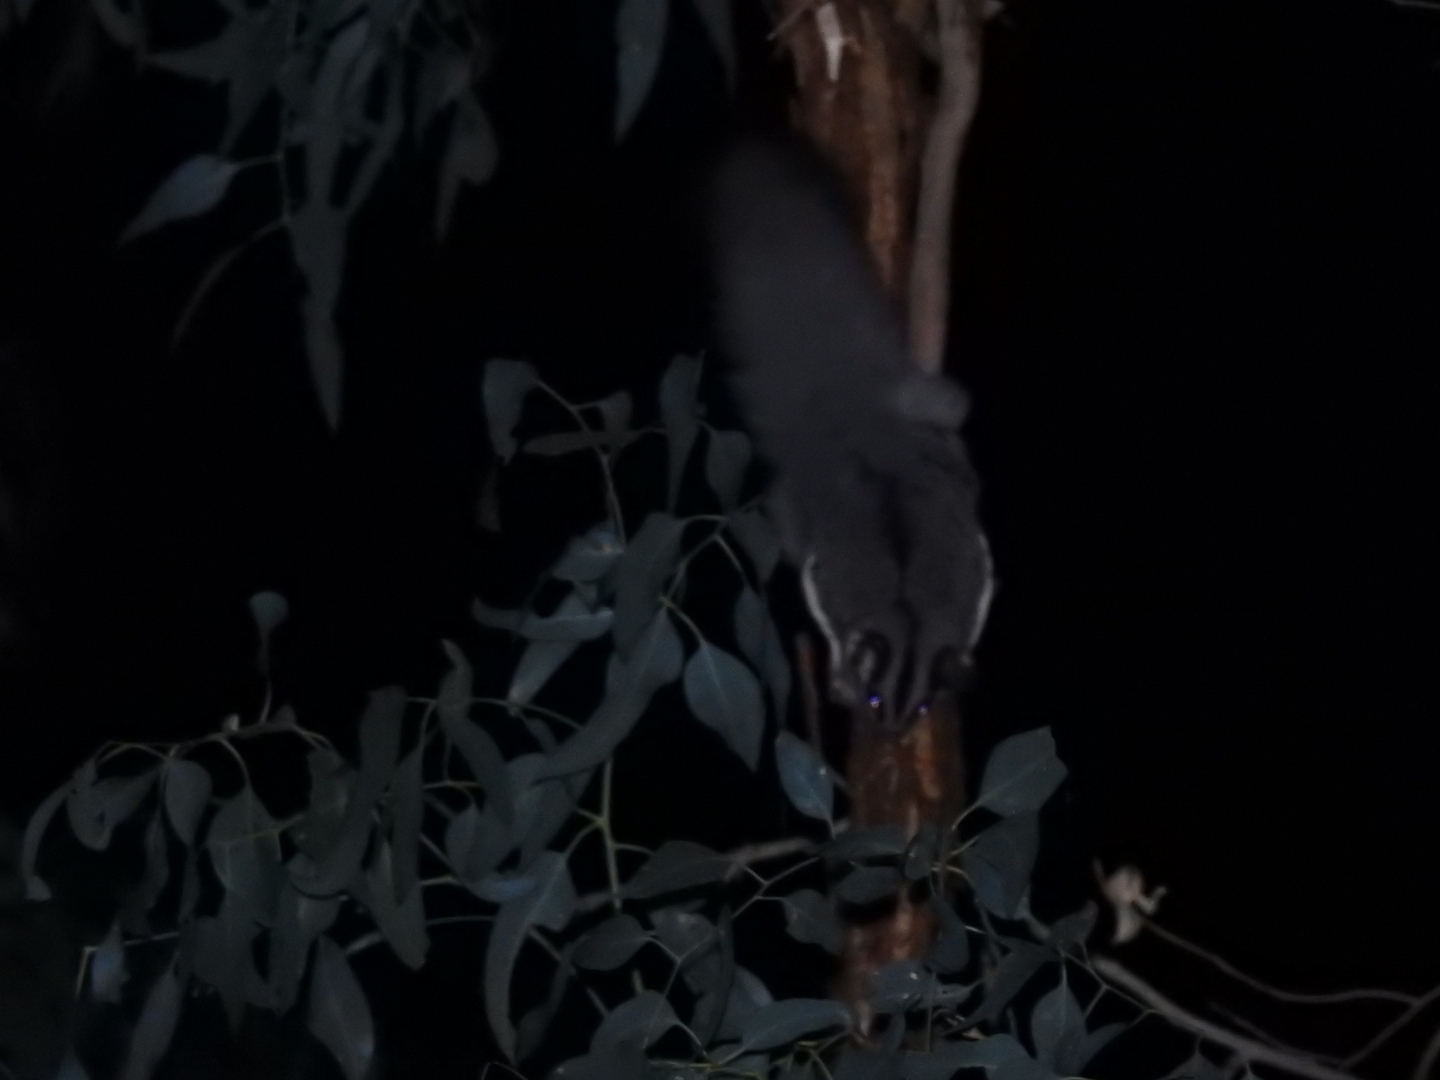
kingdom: Animalia
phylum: Chordata
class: Mammalia
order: Diprotodontia
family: Petauridae
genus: Petaurus
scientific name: Petaurus norfolcensis
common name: Squirrel glider
